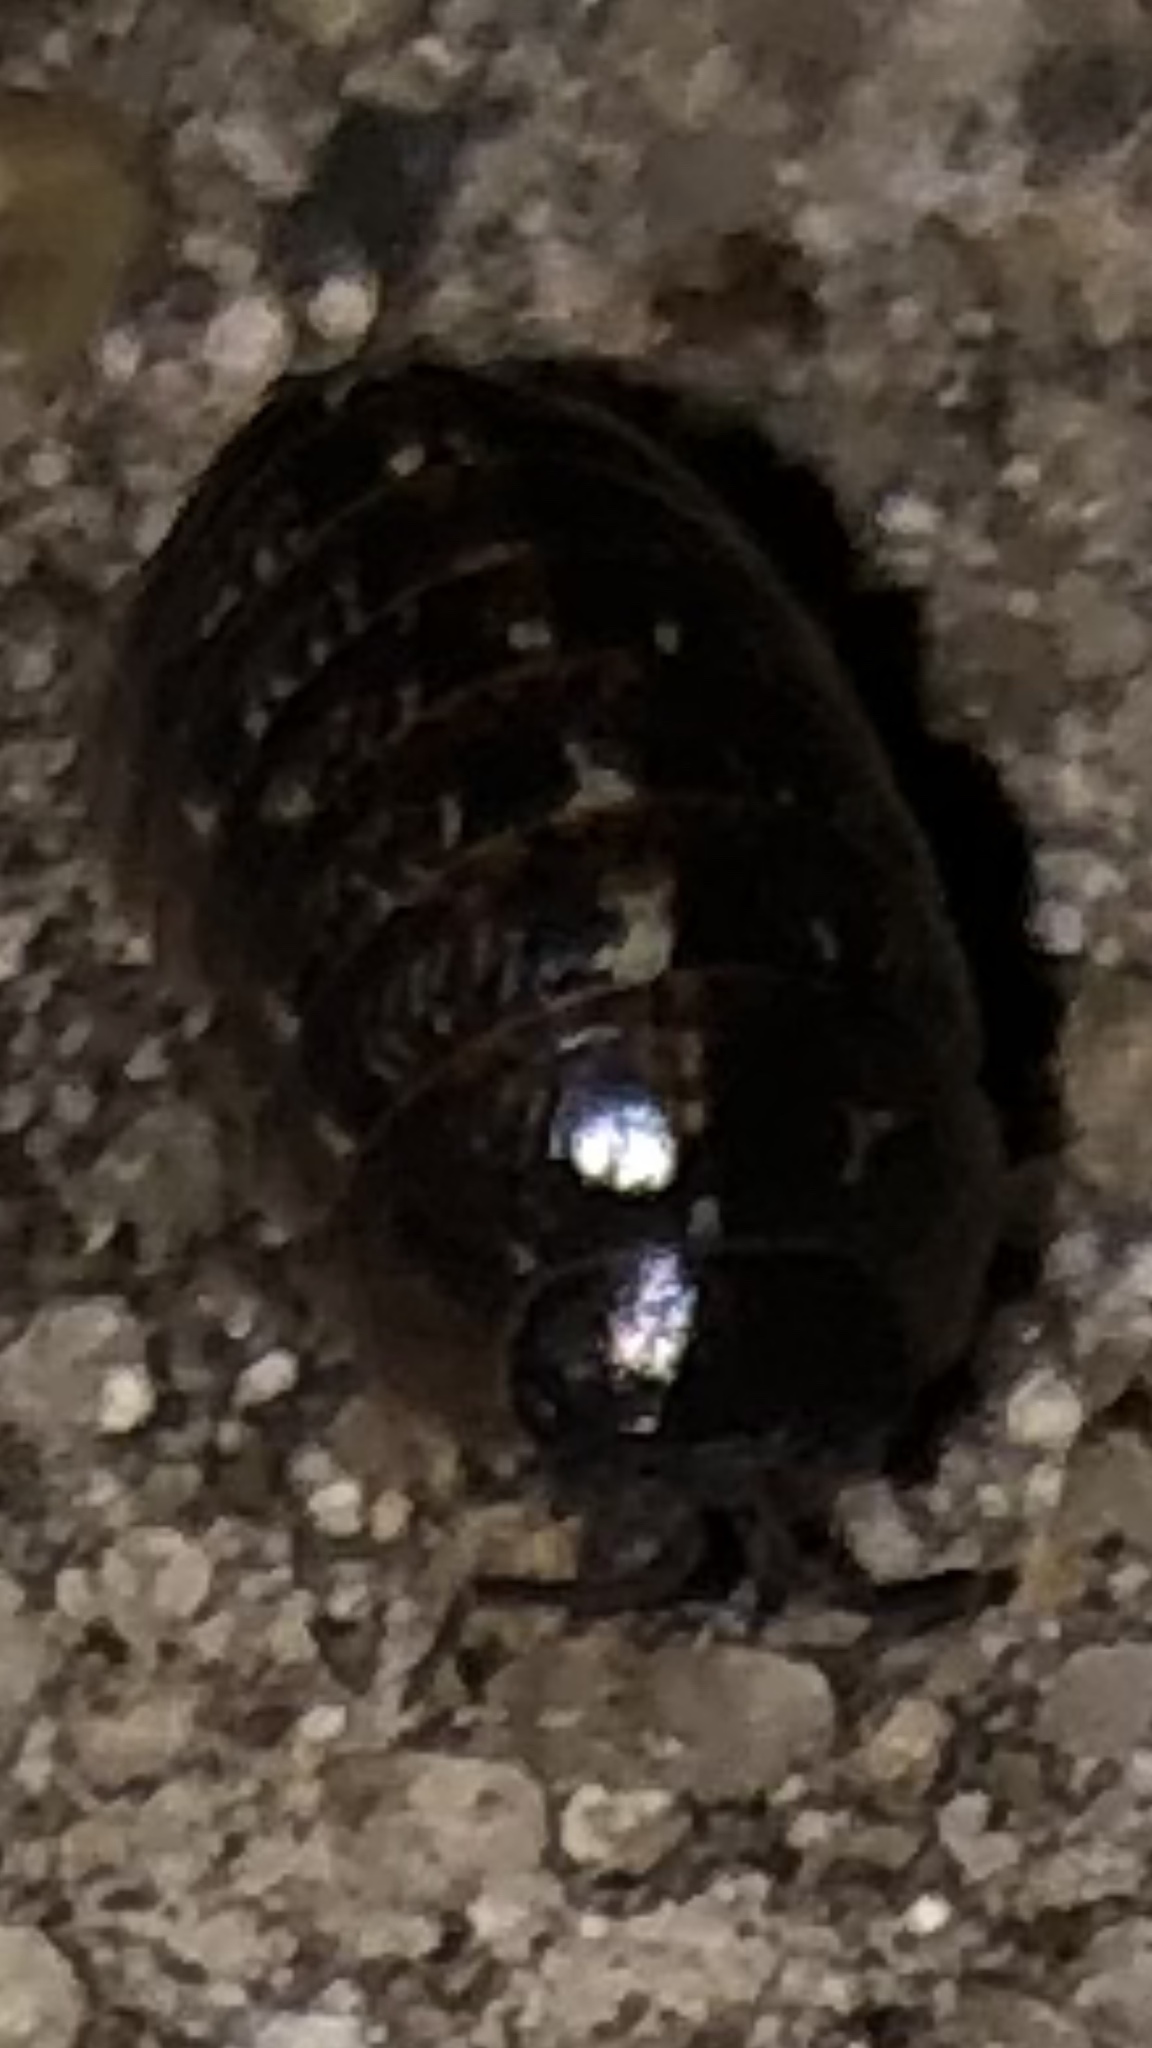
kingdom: Animalia
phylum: Arthropoda
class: Malacostraca
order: Isopoda
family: Armadillidiidae
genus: Armadillidium
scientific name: Armadillidium vulgare
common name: Common pill woodlouse
